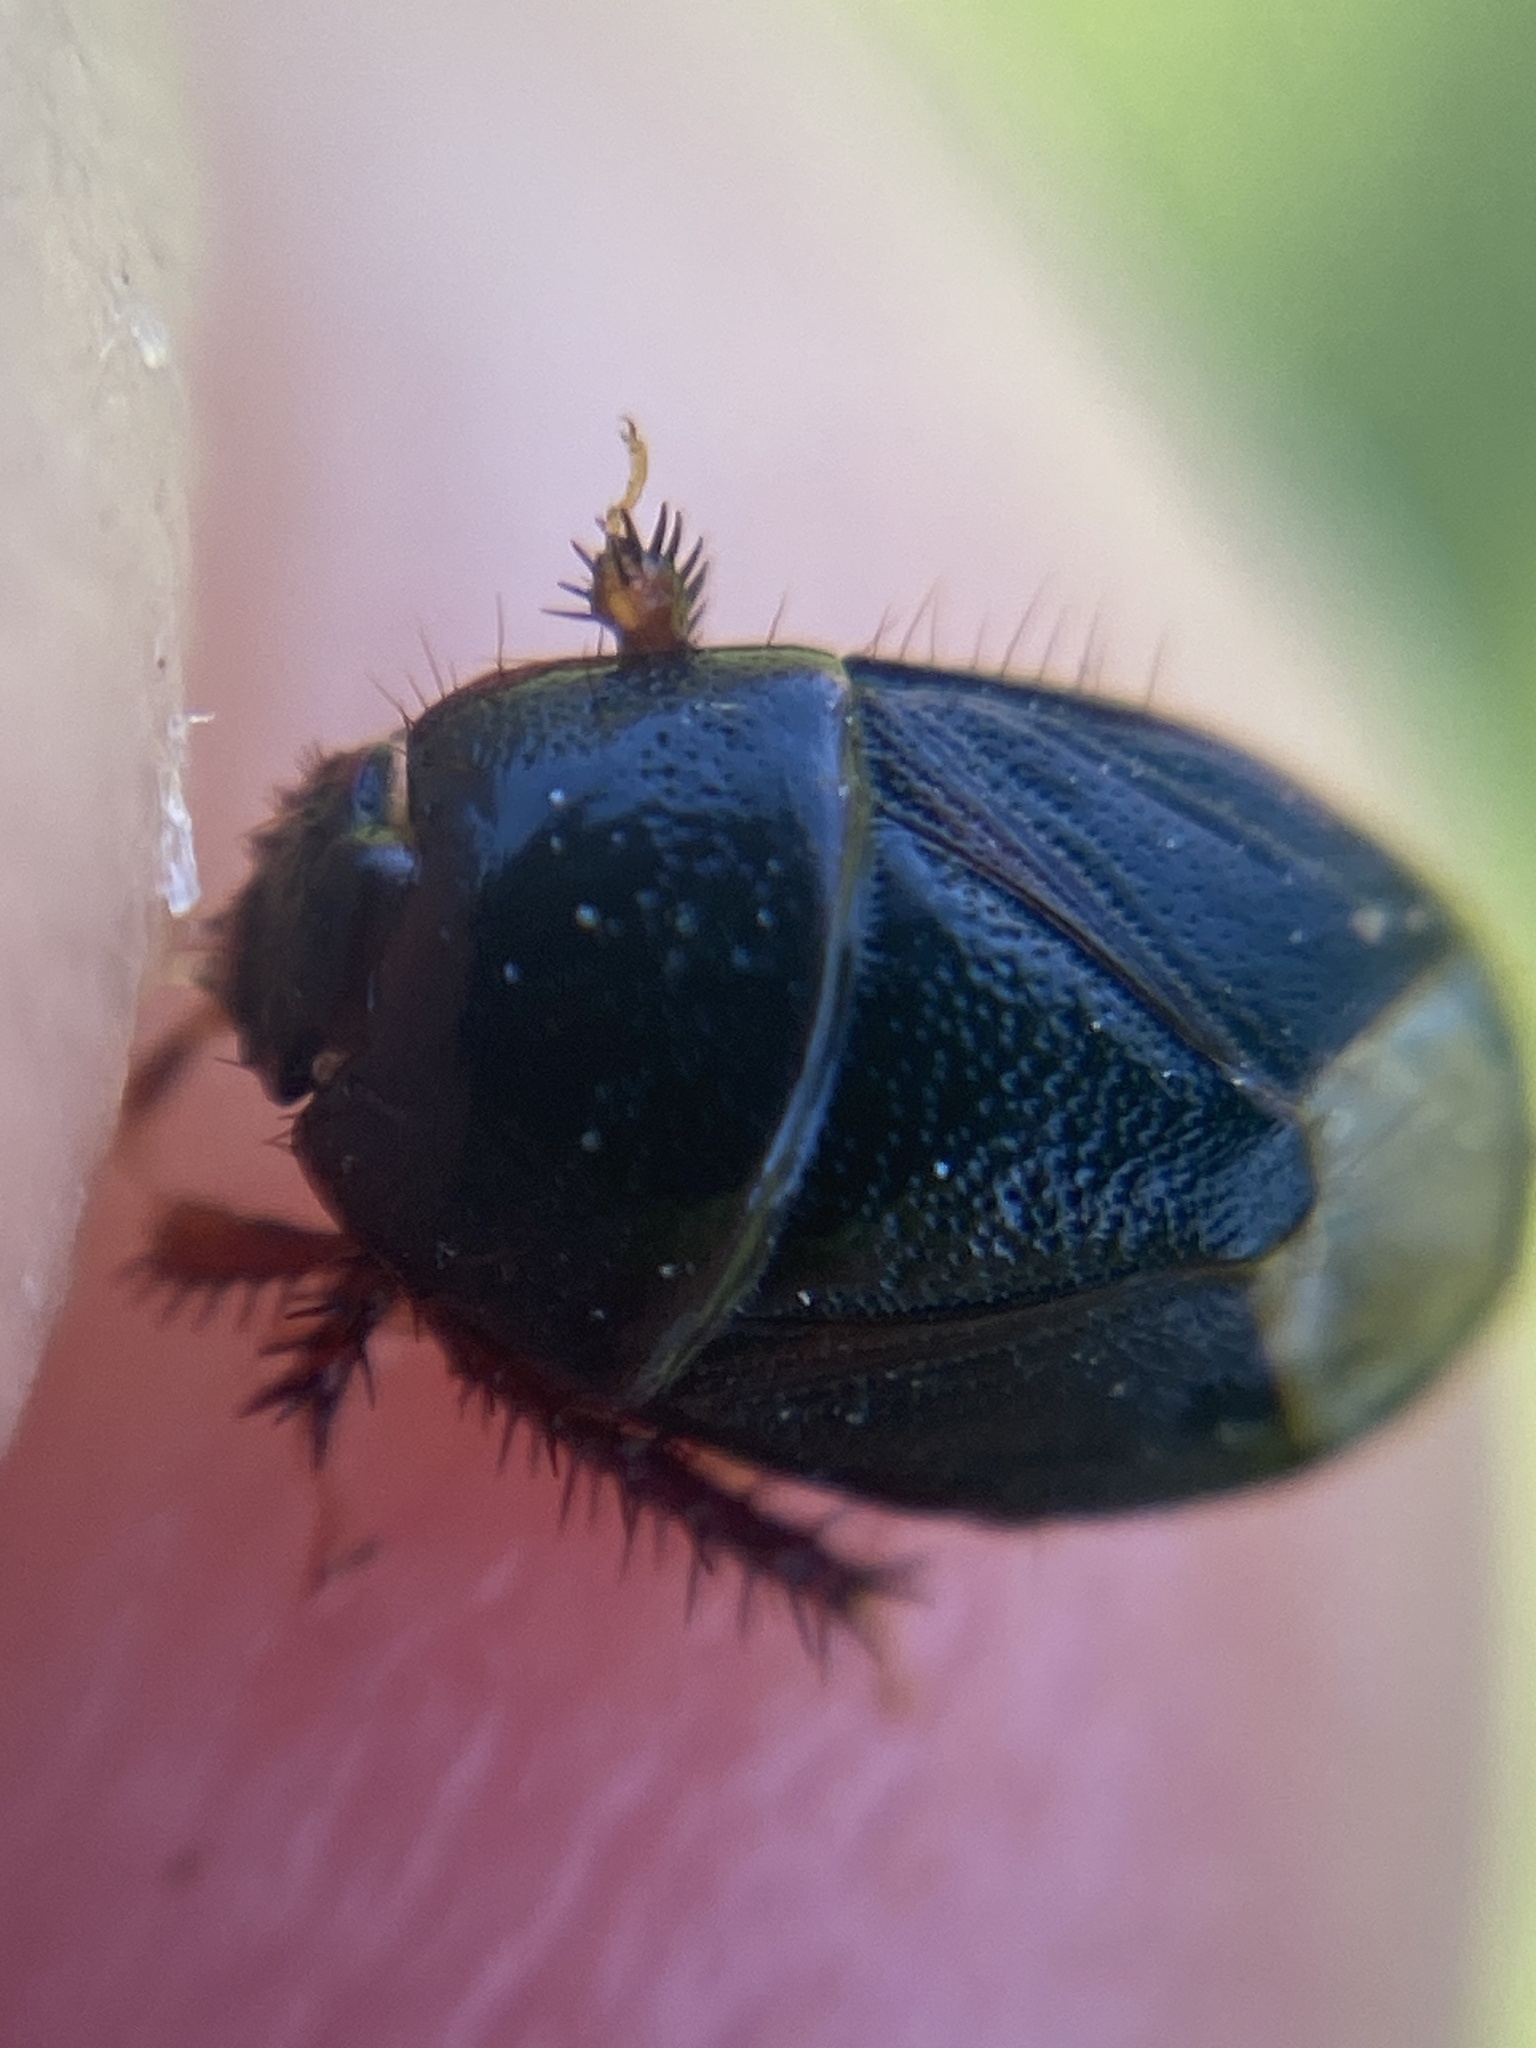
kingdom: Animalia
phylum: Arthropoda
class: Insecta
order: Hemiptera
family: Cydnidae
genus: Microporus
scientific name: Microporus nigrita
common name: Burrower bug
